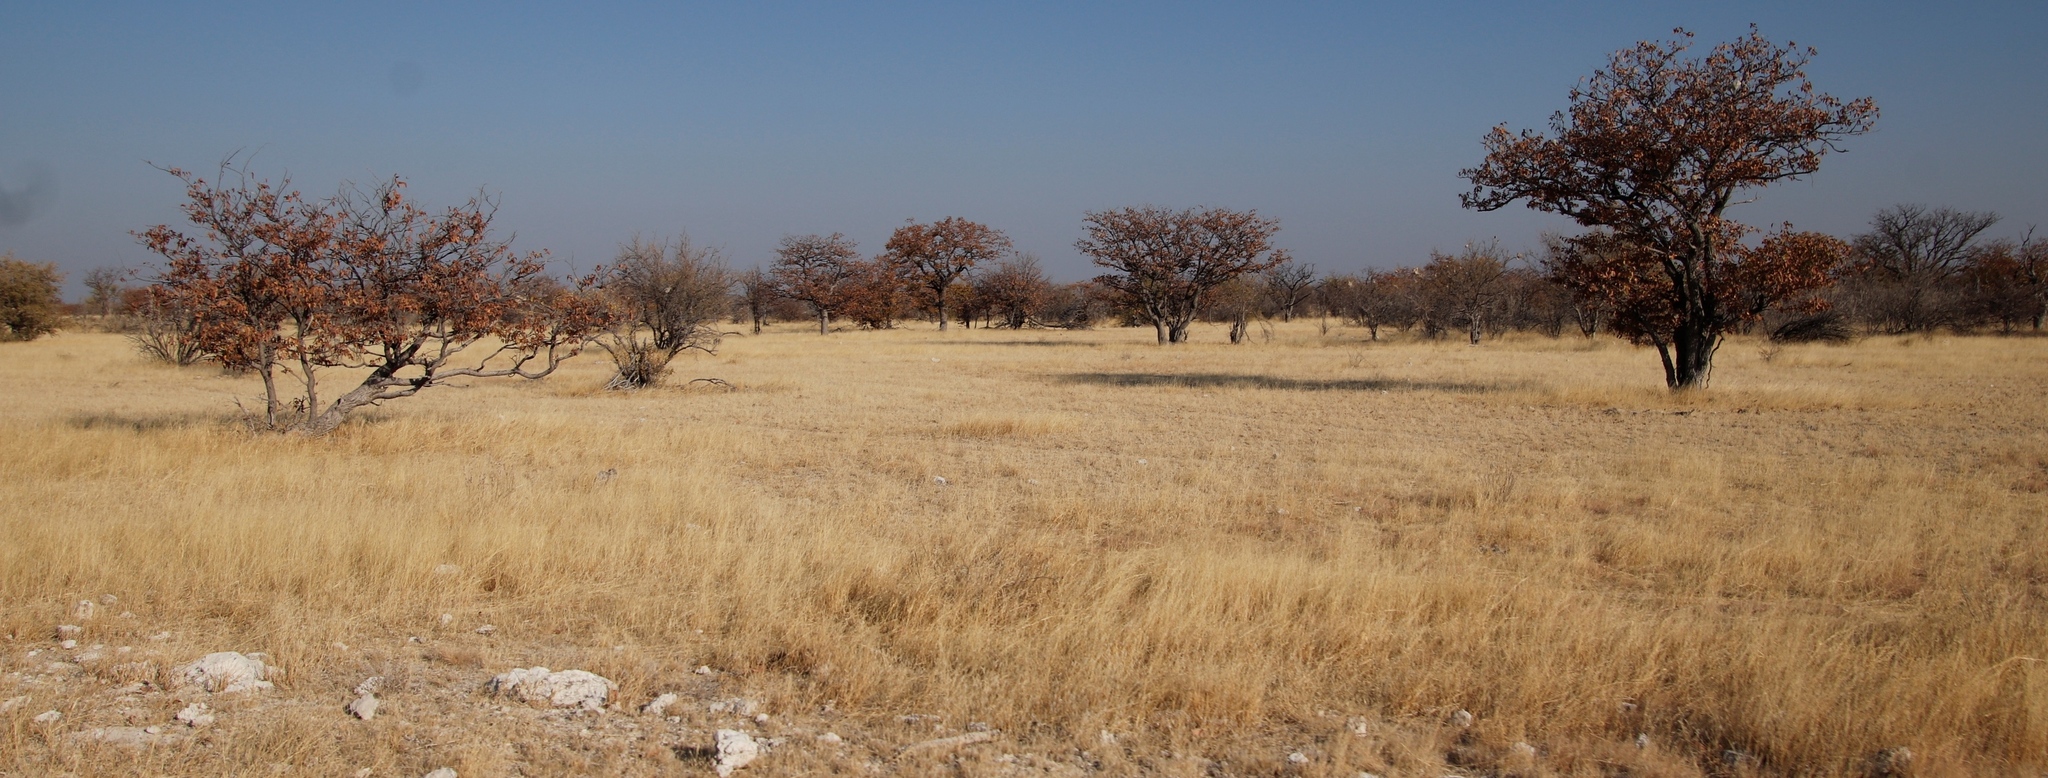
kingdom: Plantae
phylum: Tracheophyta
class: Magnoliopsida
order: Fabales
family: Fabaceae
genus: Colophospermum
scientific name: Colophospermum mopane
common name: Mopane
